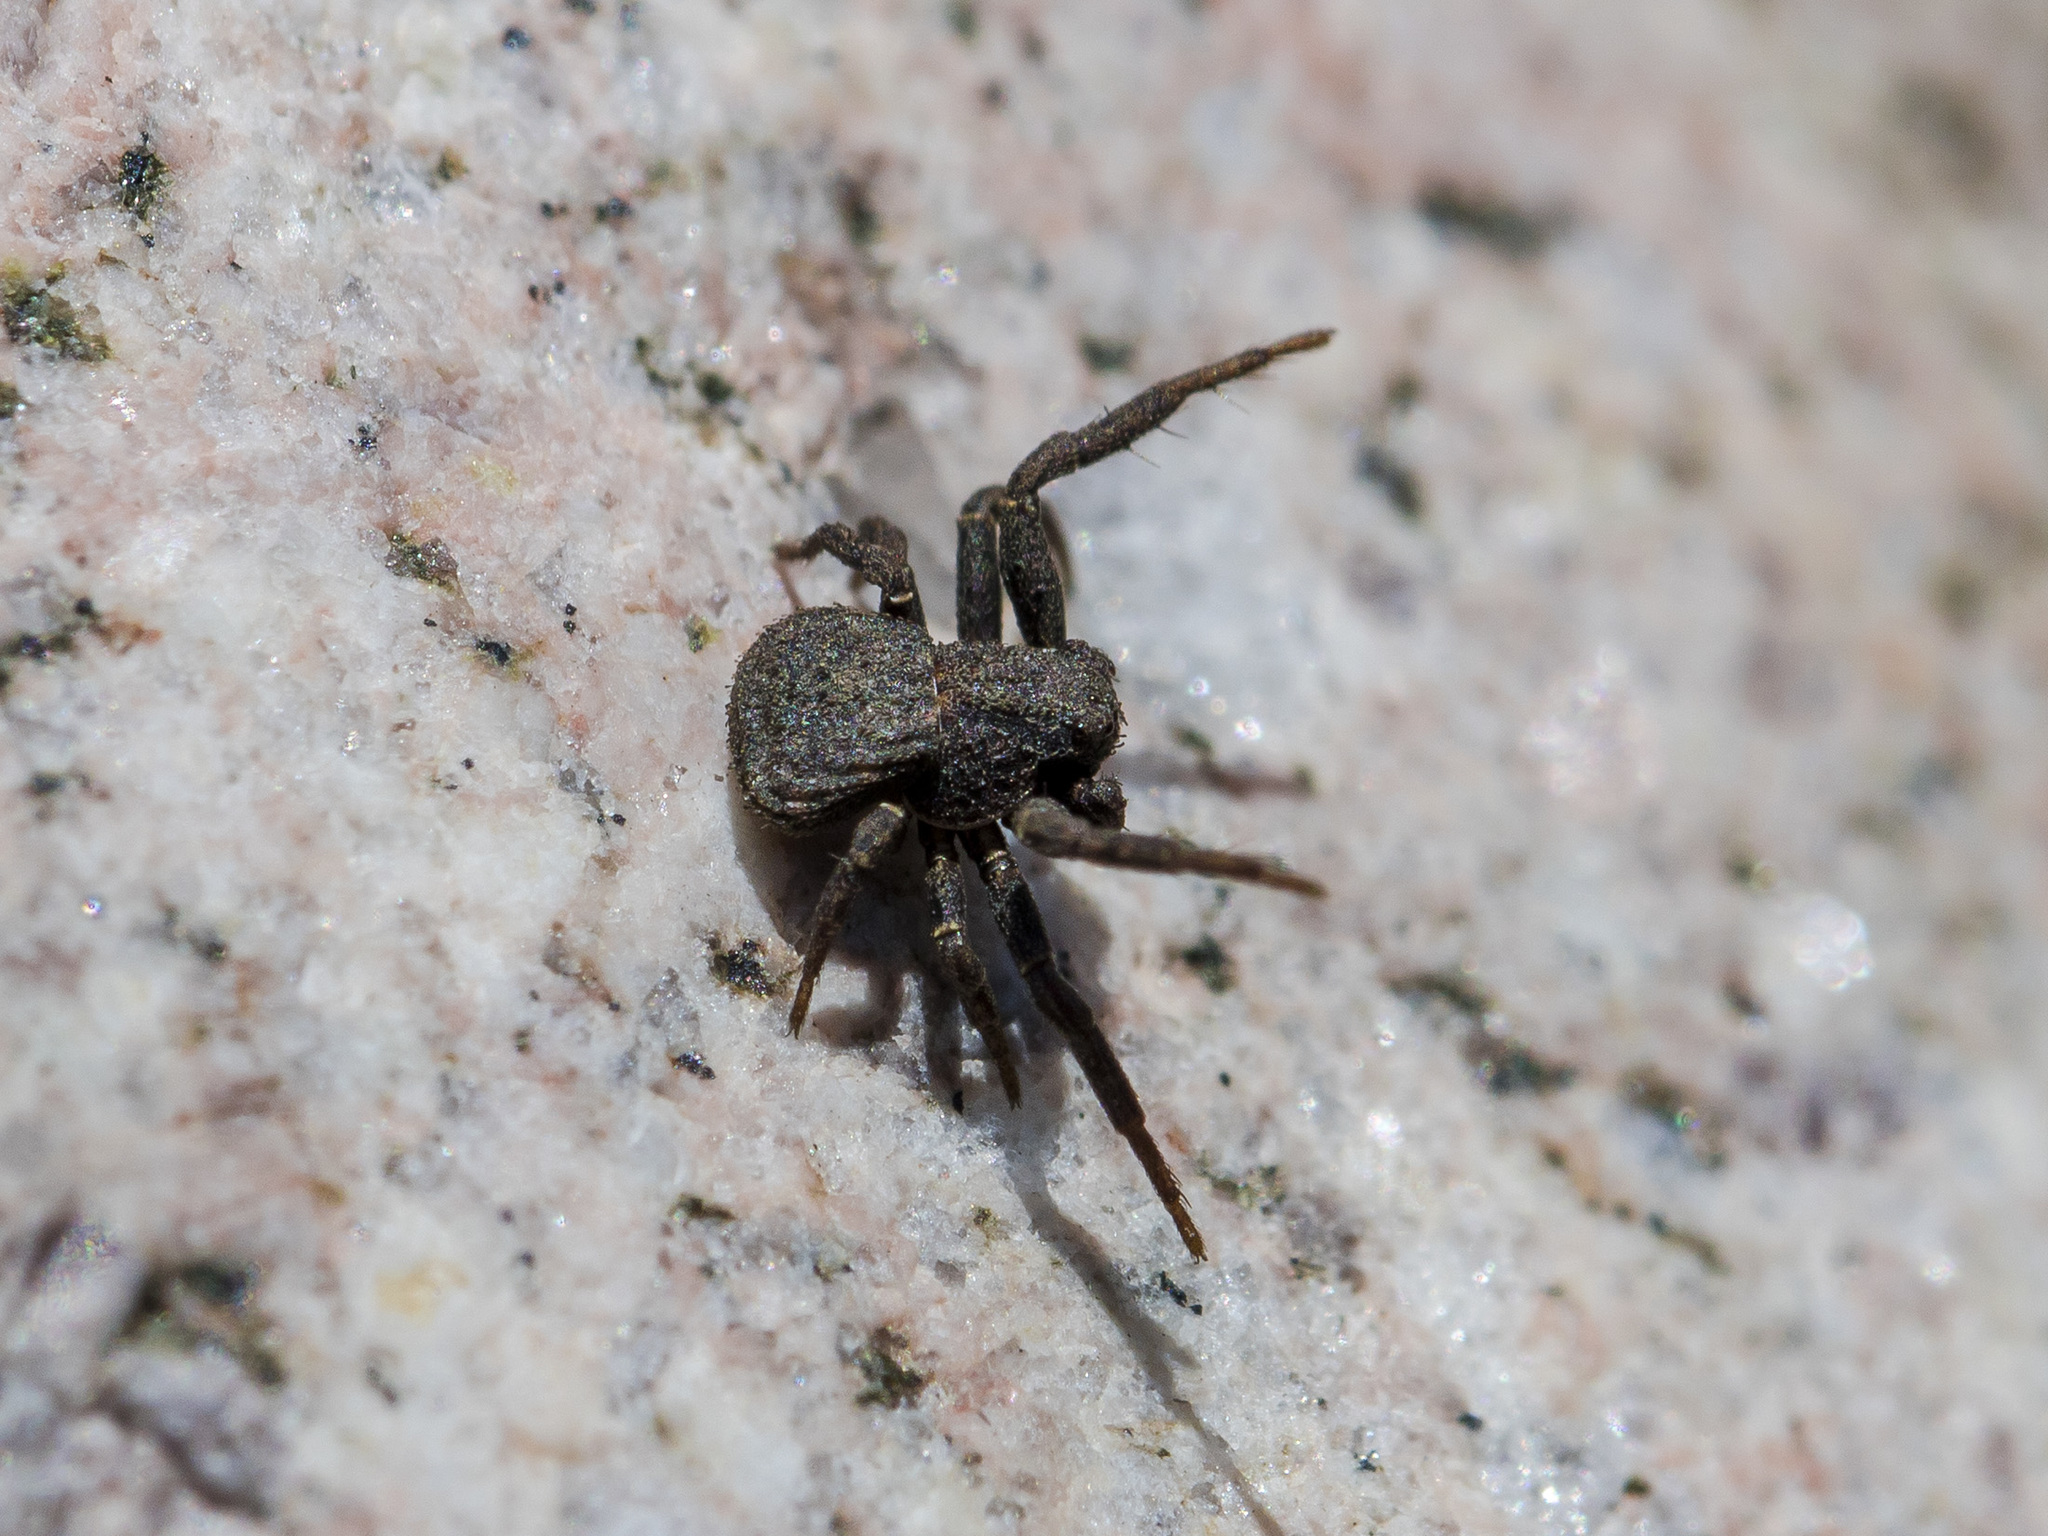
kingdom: Animalia
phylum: Arthropoda
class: Arachnida
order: Araneae
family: Thomisidae
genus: Ozyptila
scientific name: Ozyptila scabricula
